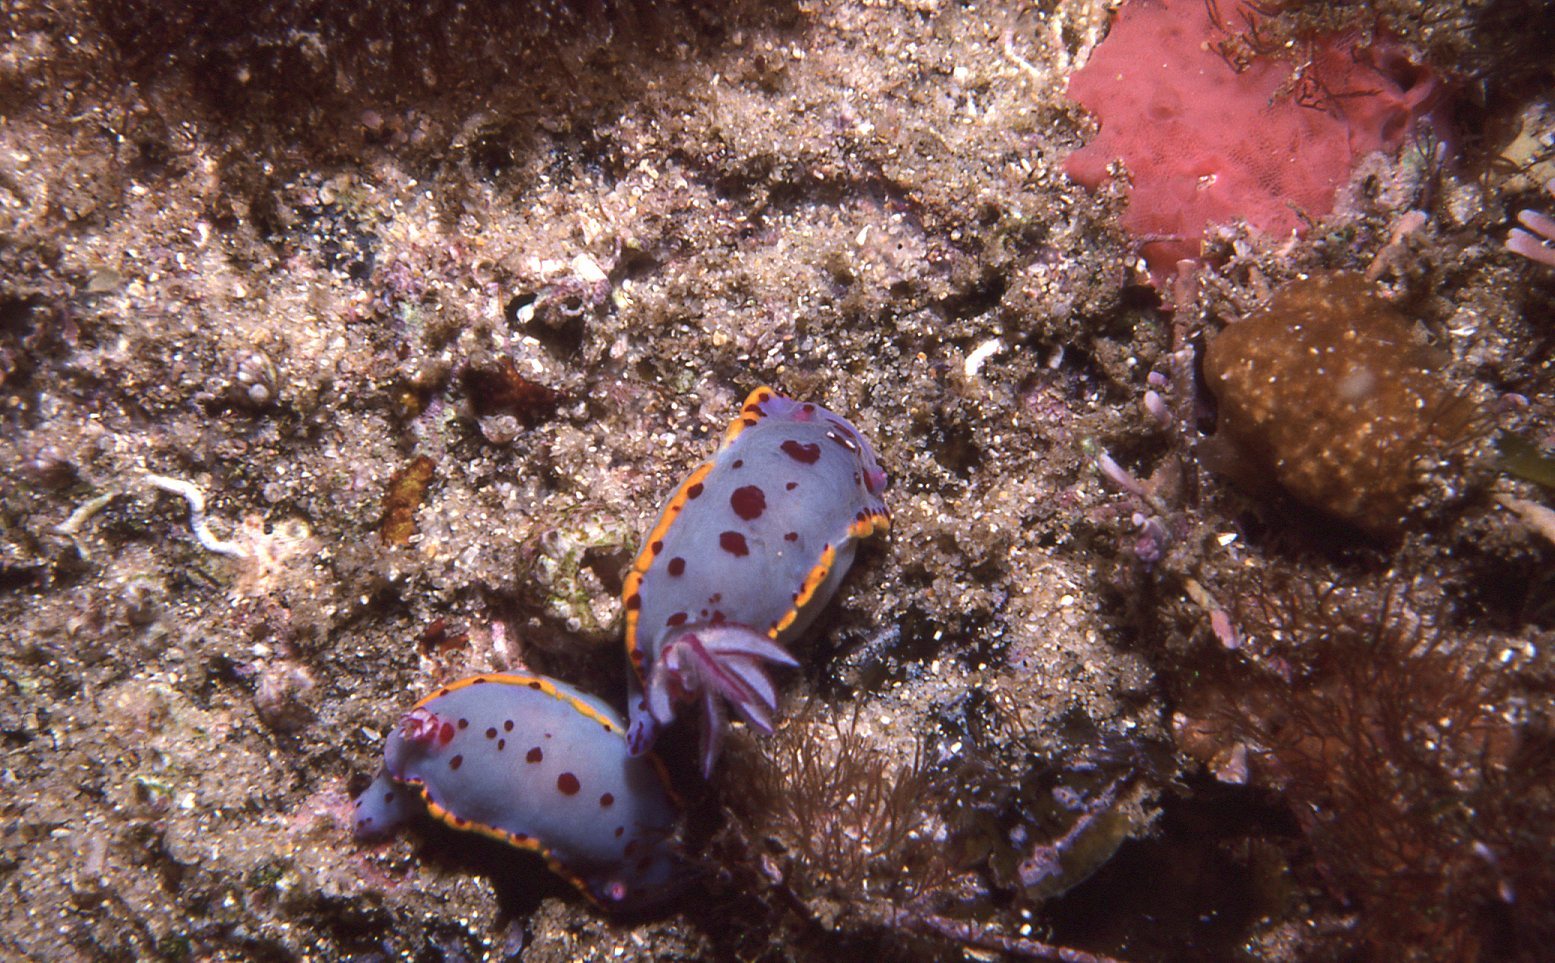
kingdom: Animalia
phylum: Mollusca
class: Gastropoda
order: Nudibranchia
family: Chromodorididae
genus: Hypselodoris
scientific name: Hypselodoris bennetti
